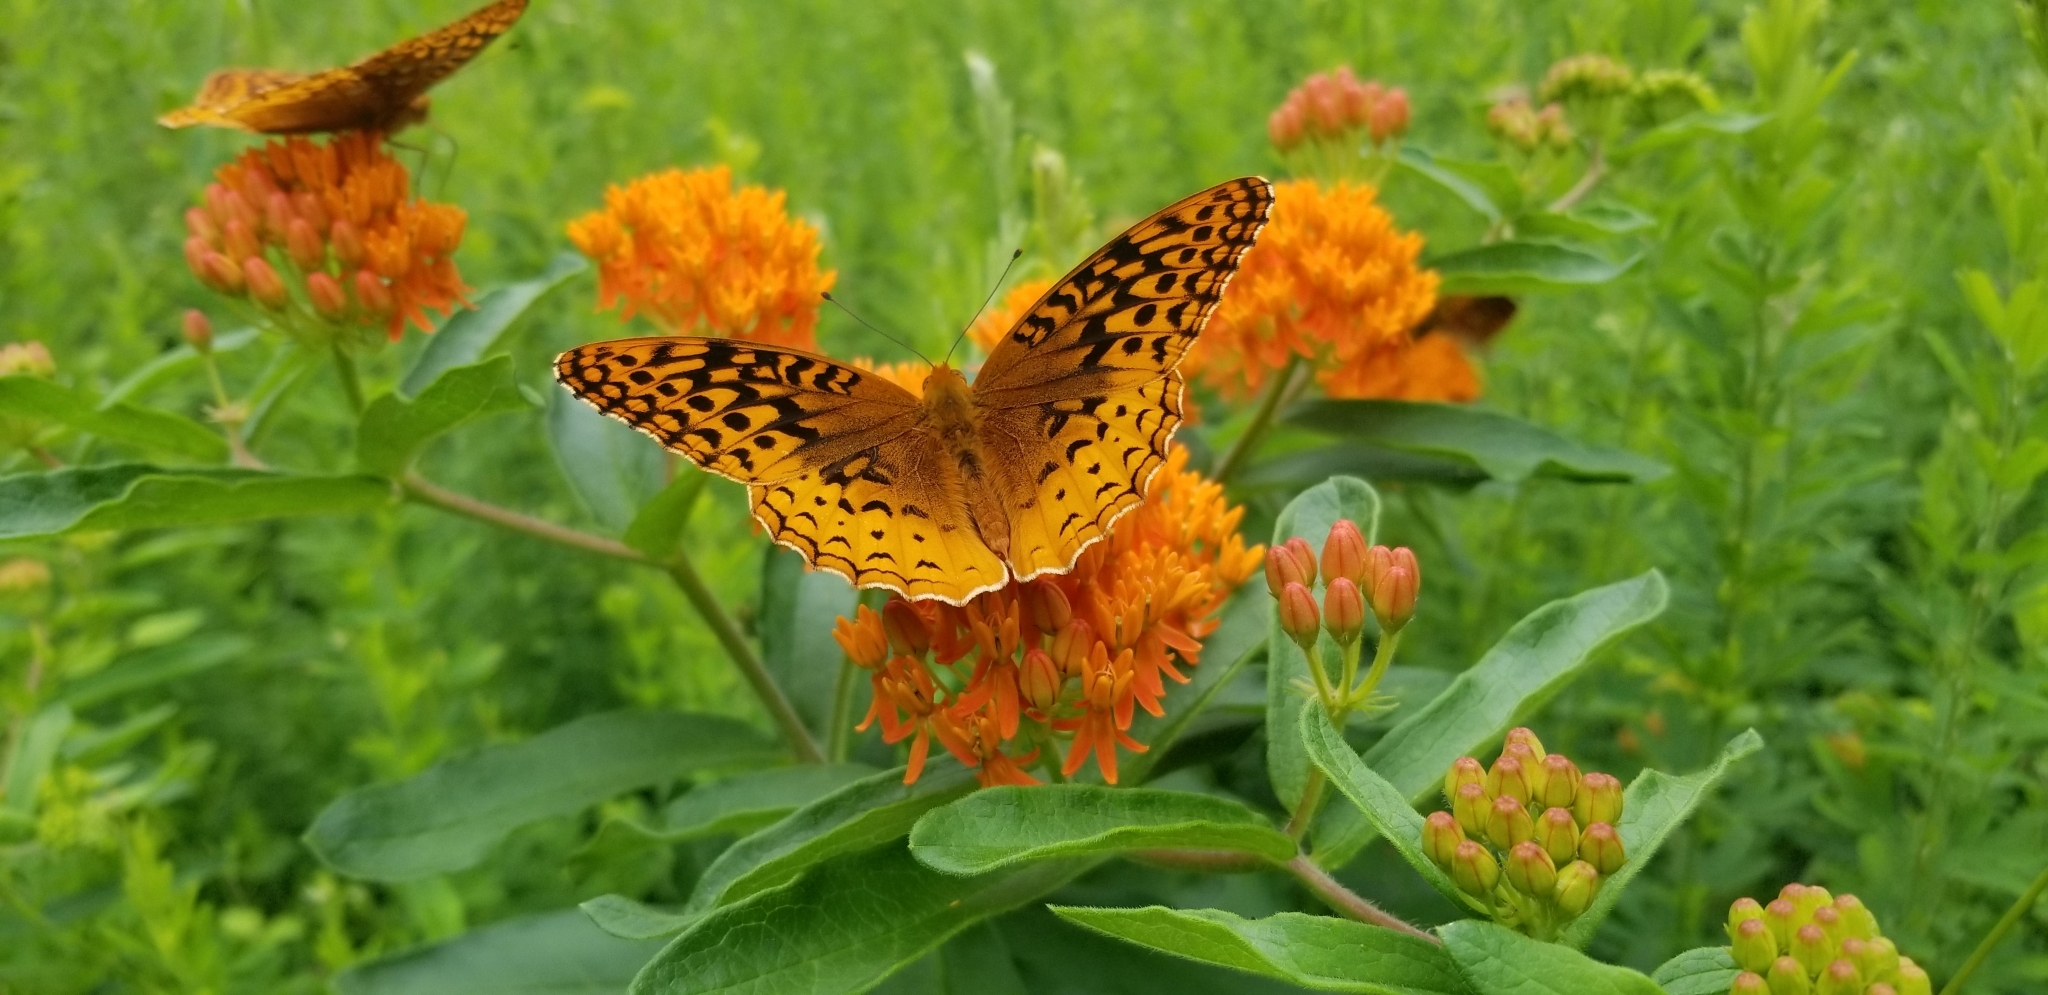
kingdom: Animalia
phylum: Arthropoda
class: Insecta
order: Lepidoptera
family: Nymphalidae
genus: Speyeria
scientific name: Speyeria cybele
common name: Great spangled fritillary
